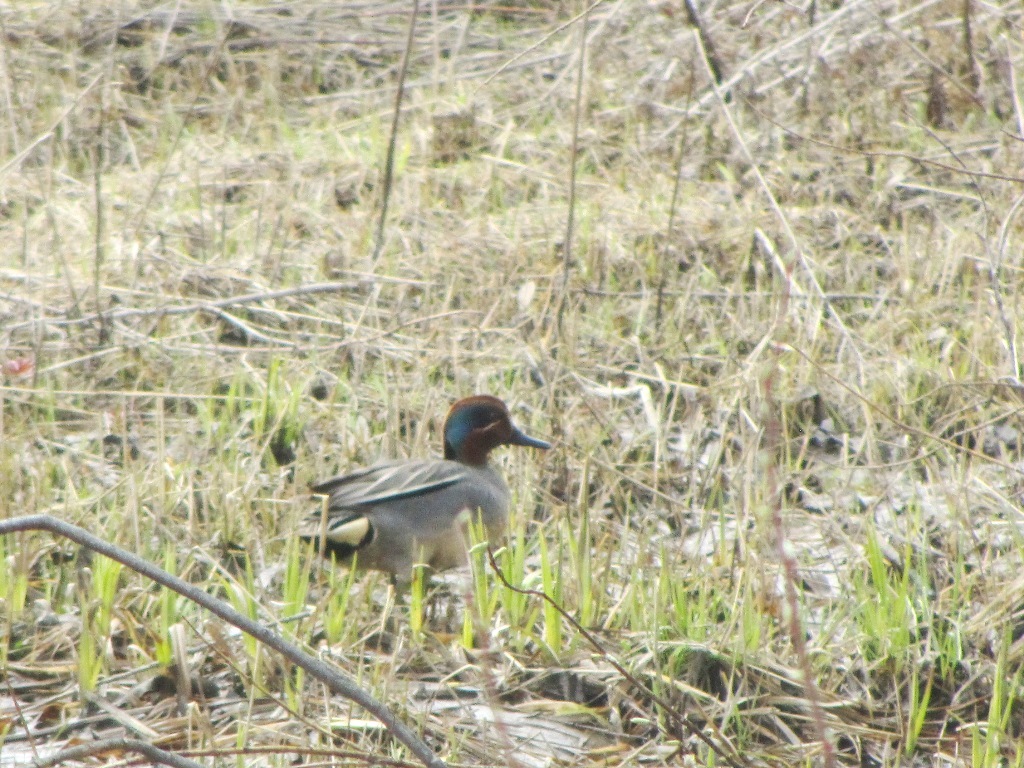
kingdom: Animalia
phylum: Chordata
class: Aves
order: Anseriformes
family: Anatidae
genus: Anas
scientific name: Anas crecca
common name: Eurasian teal
